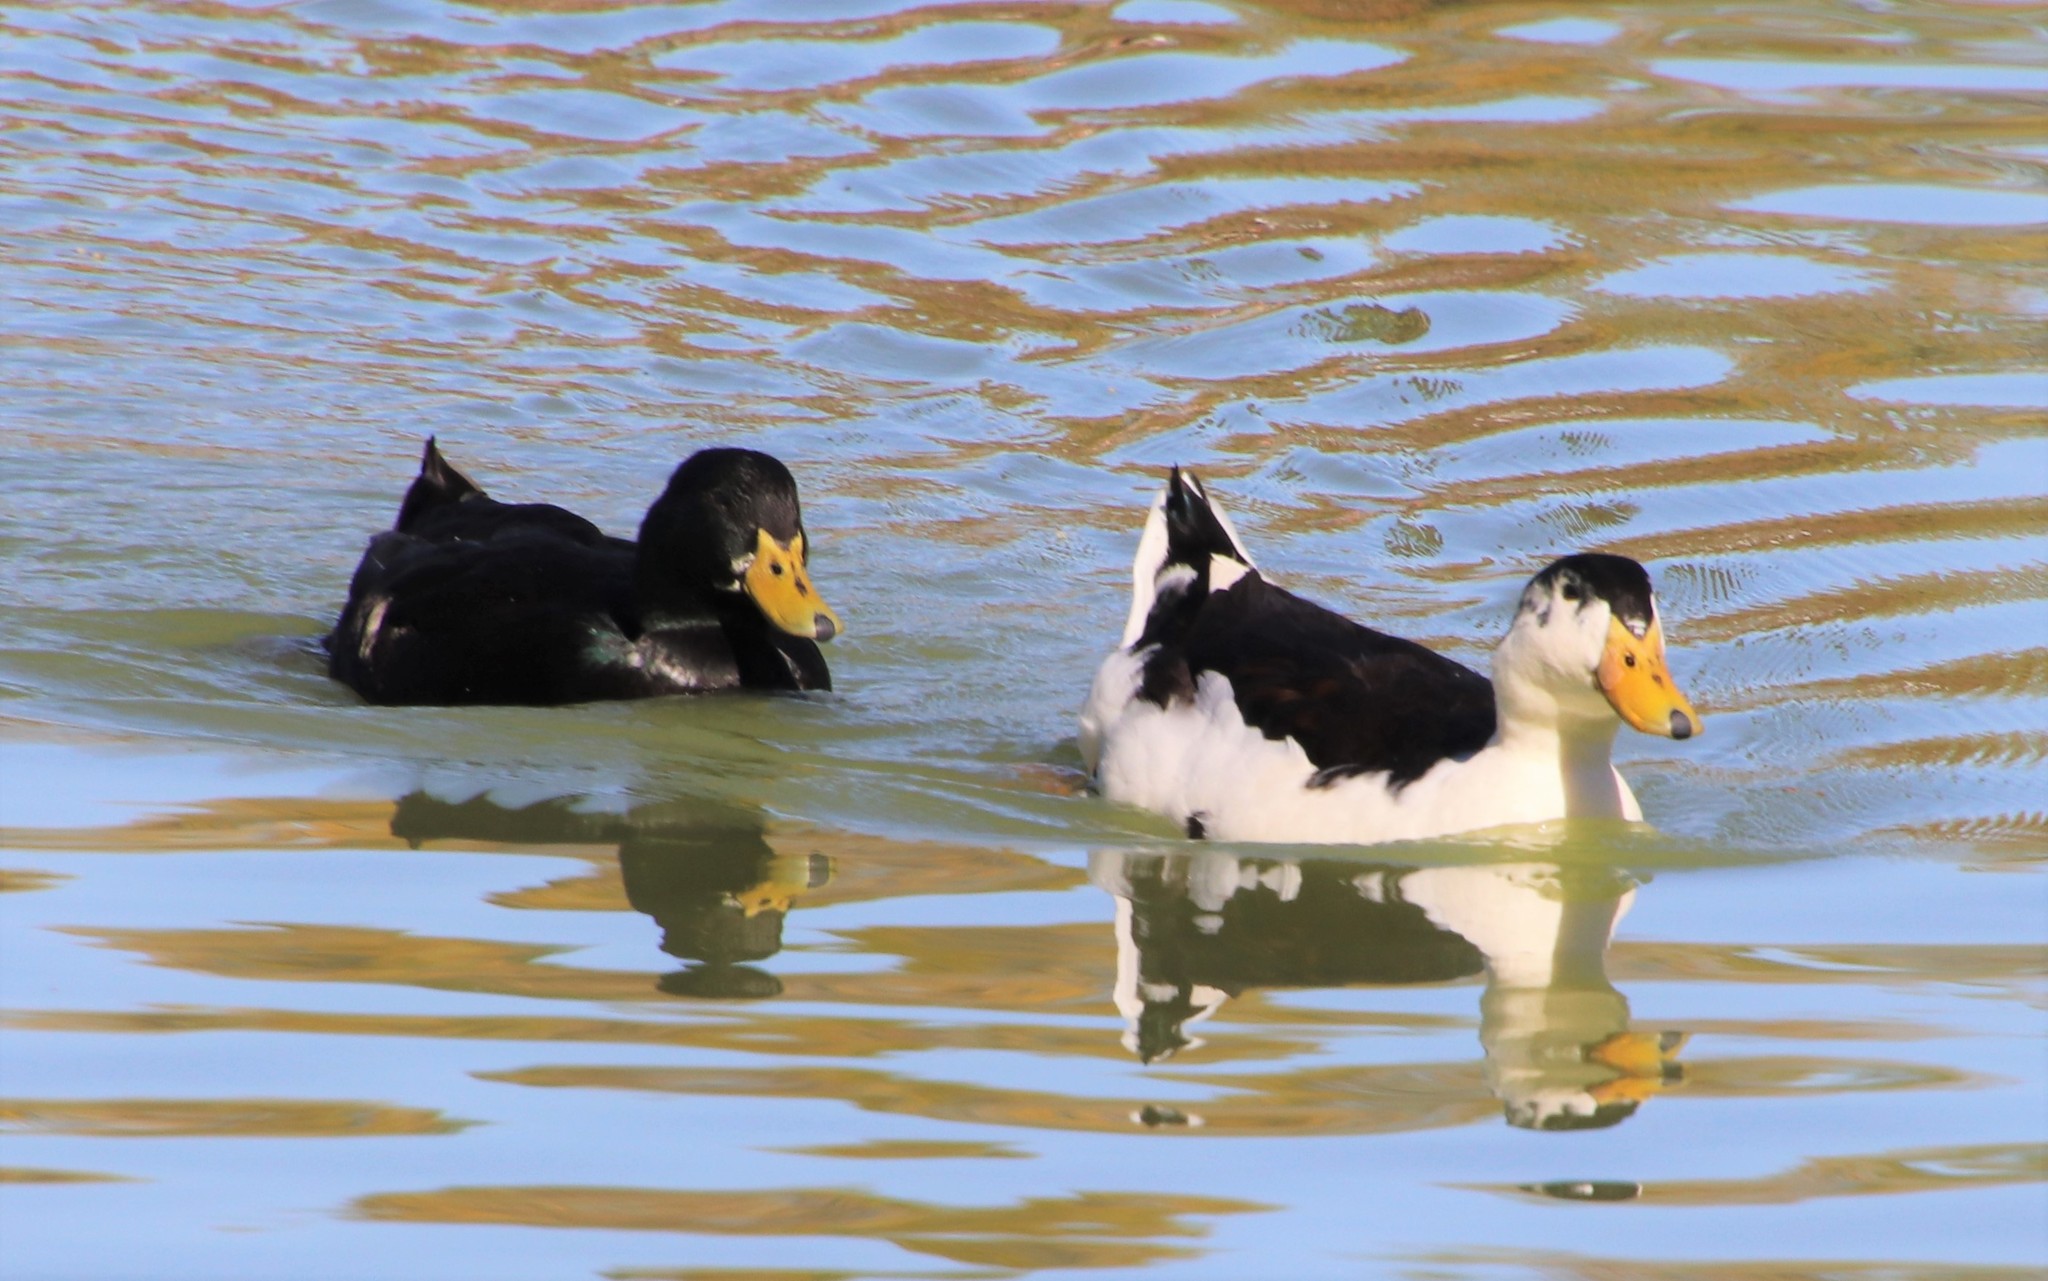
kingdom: Animalia
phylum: Chordata
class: Aves
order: Anseriformes
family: Anatidae
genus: Anas
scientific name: Anas platyrhynchos
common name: Mallard
